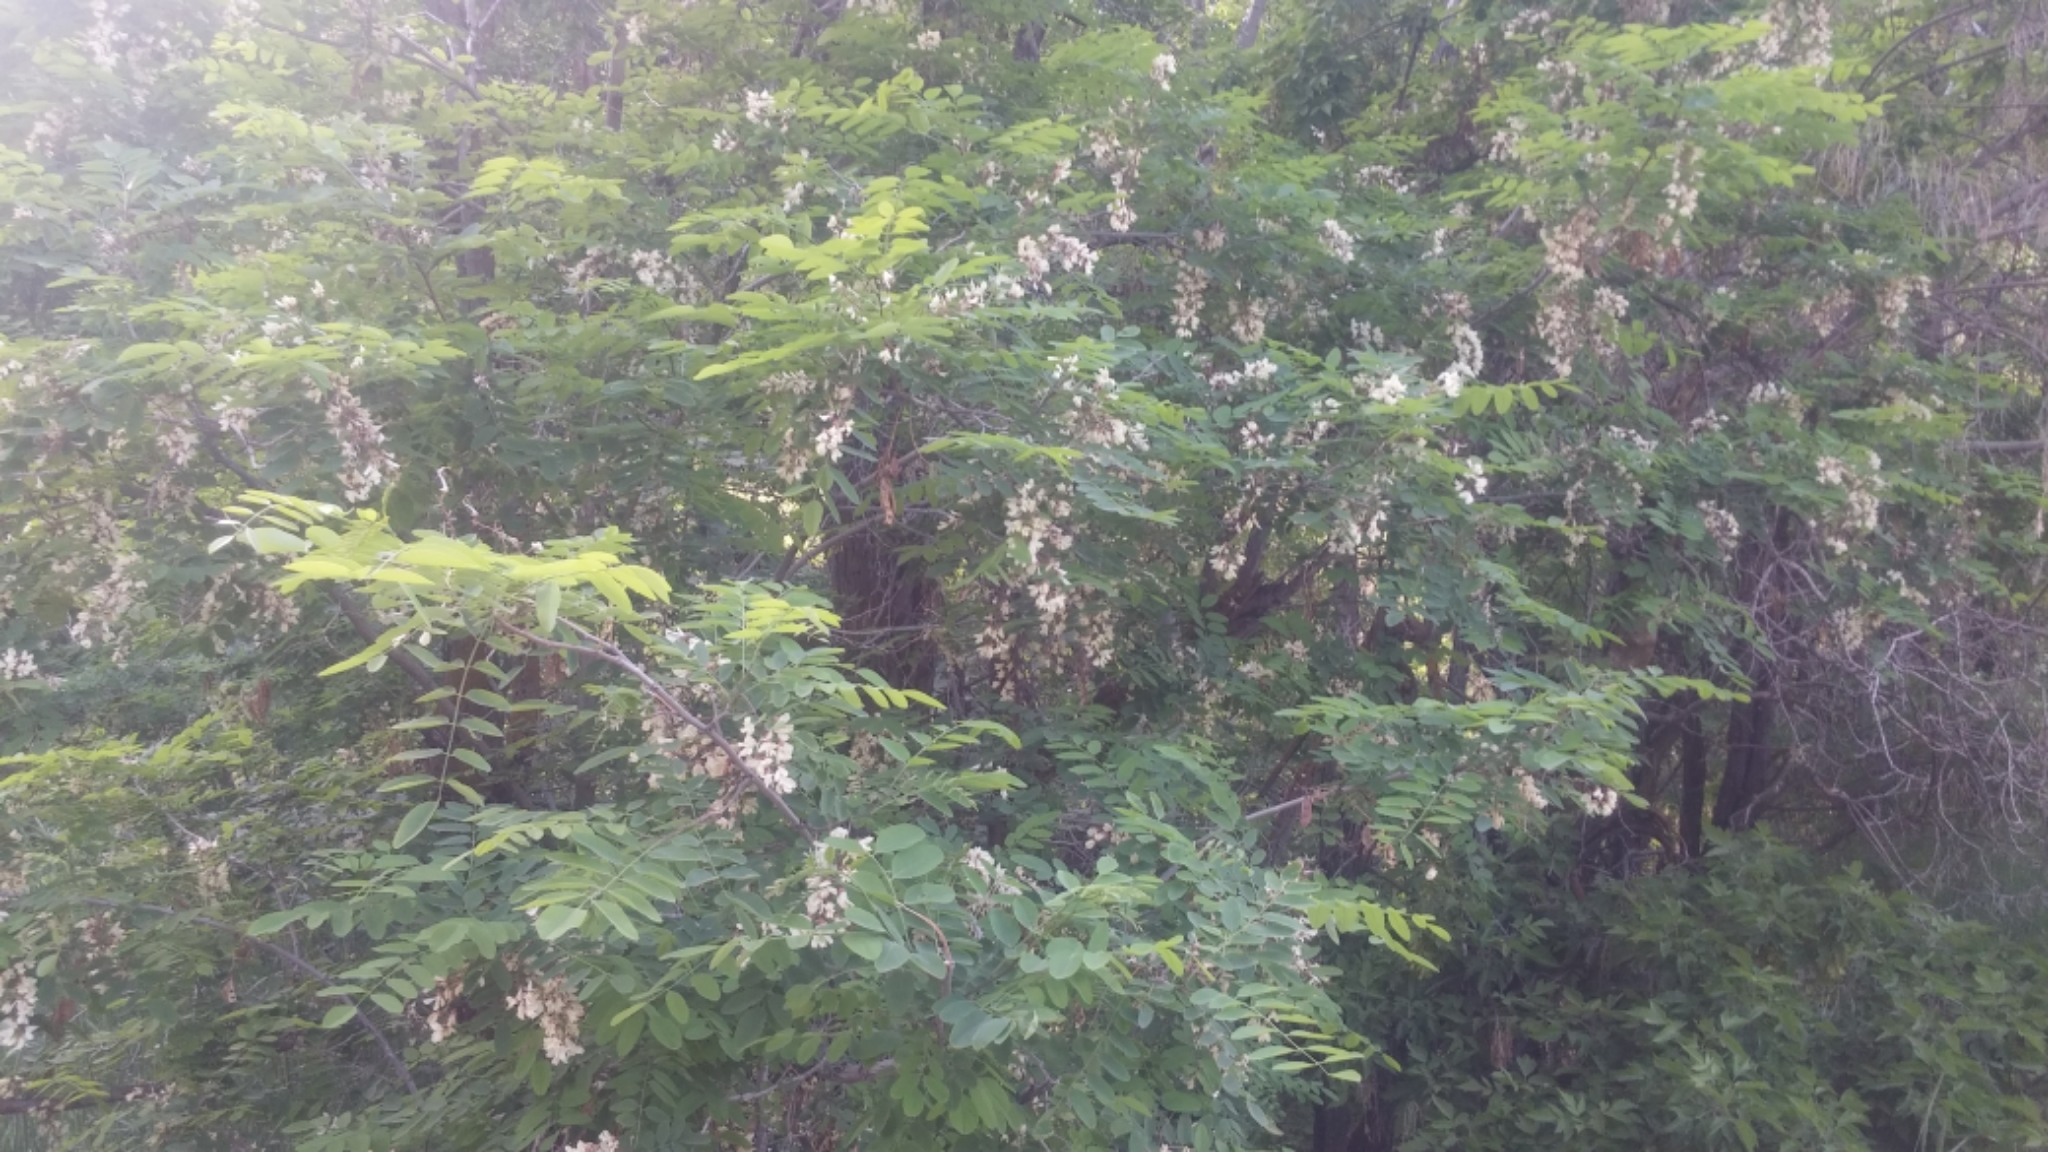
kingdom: Plantae
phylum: Tracheophyta
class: Magnoliopsida
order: Fabales
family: Fabaceae
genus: Robinia
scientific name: Robinia pseudoacacia
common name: Black locust
